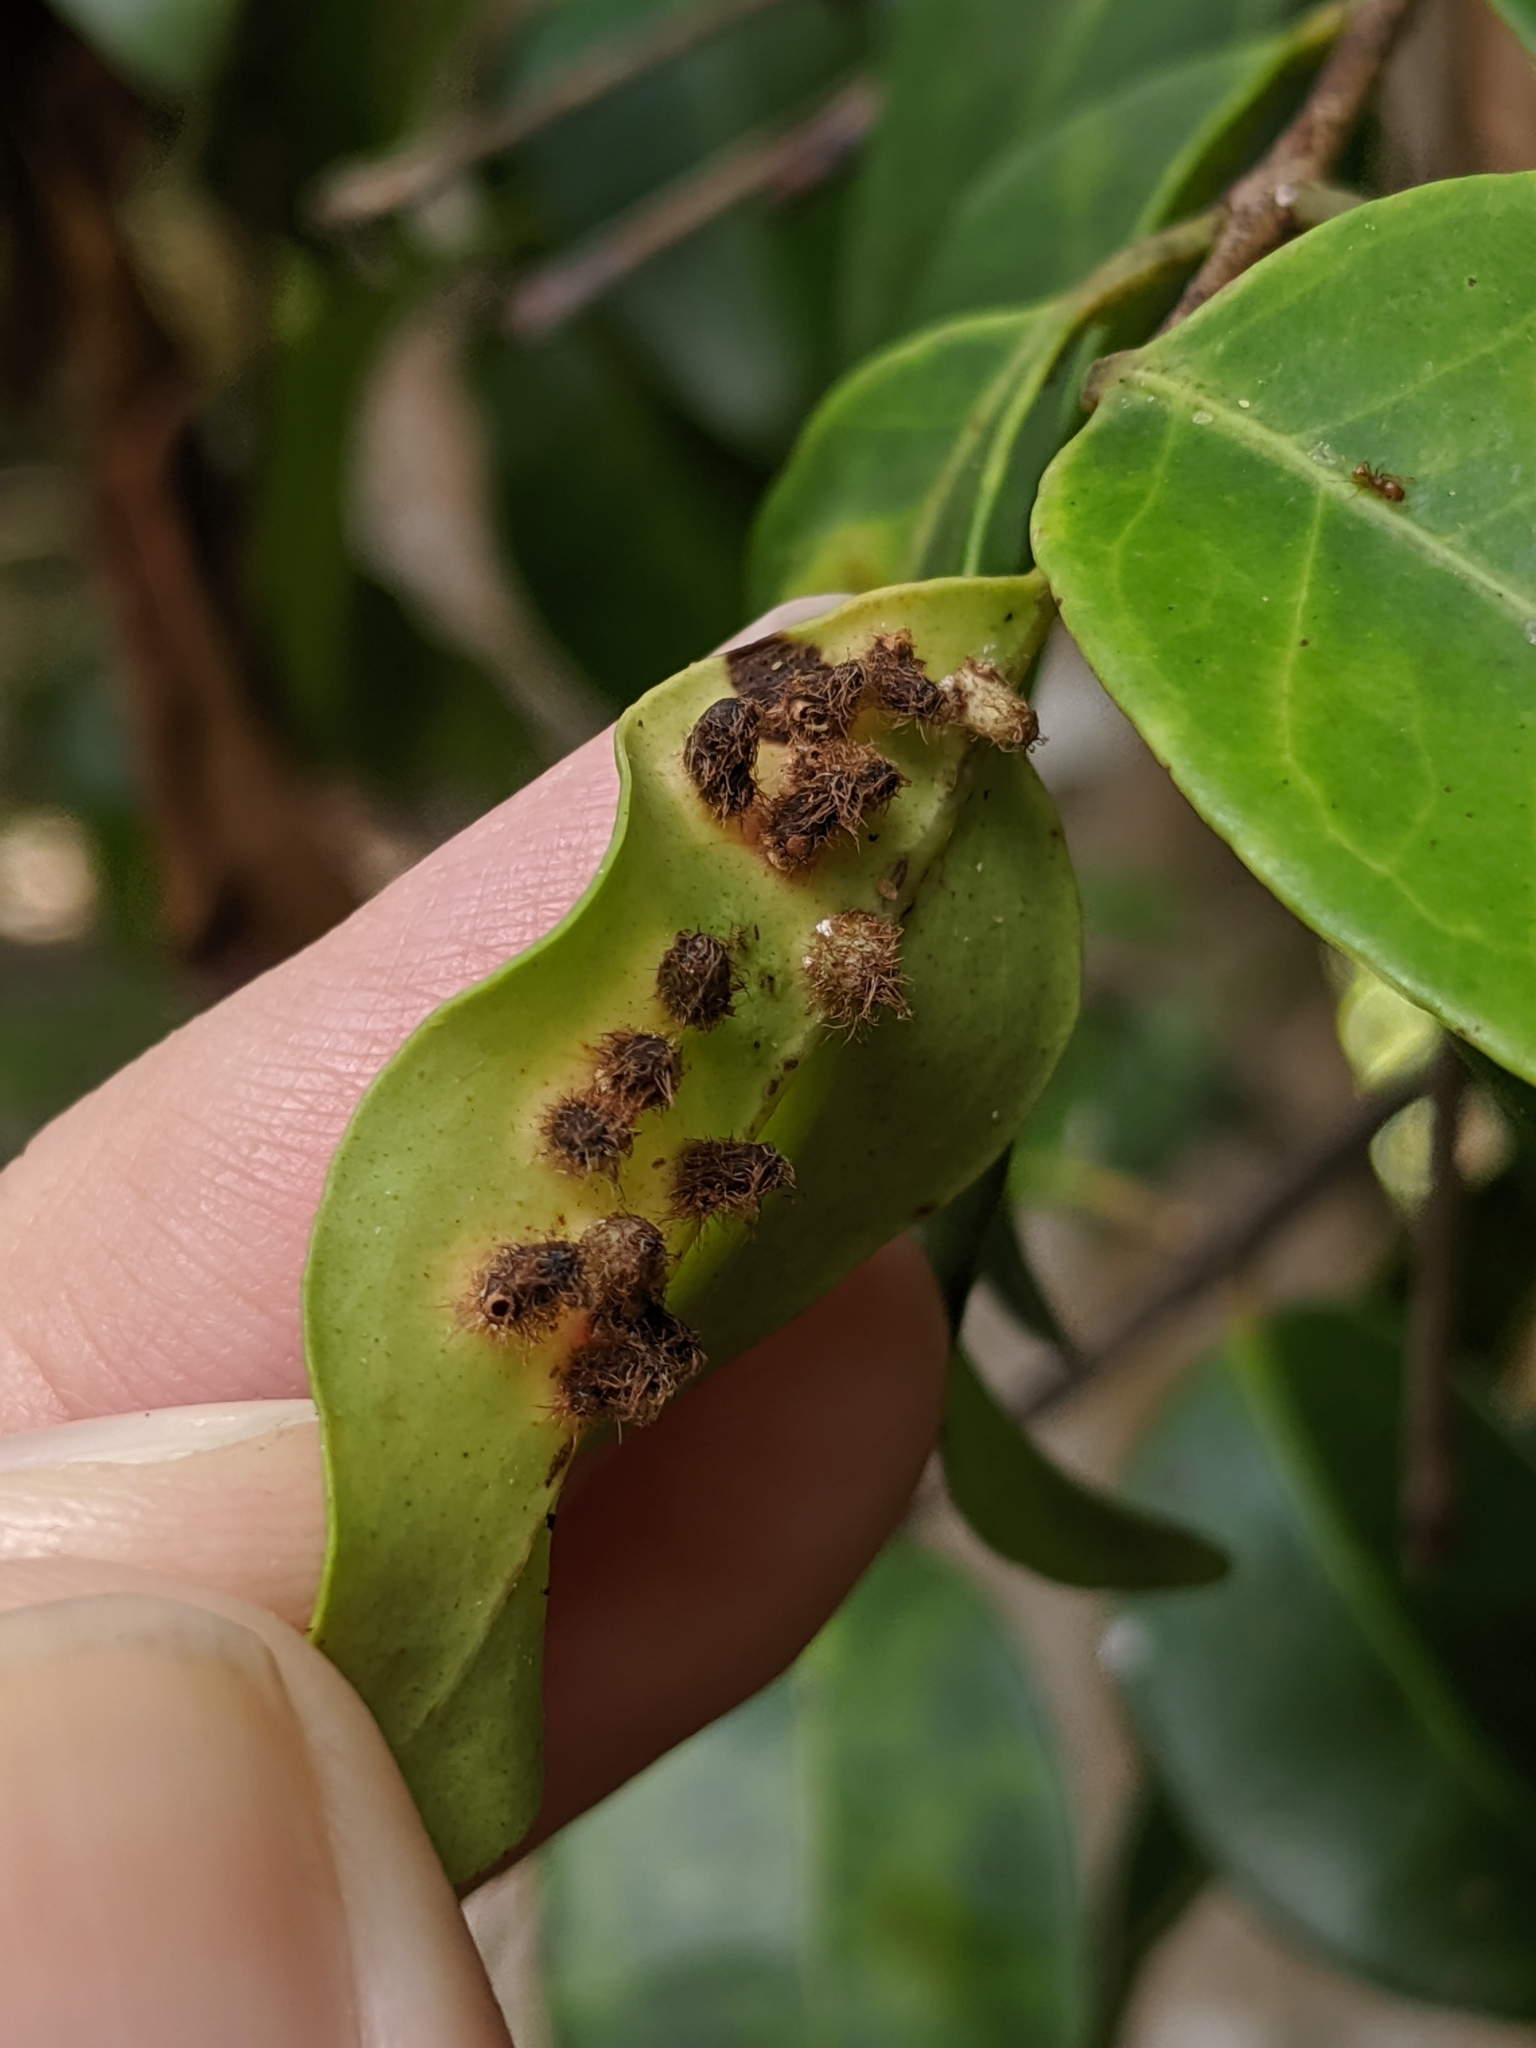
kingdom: Animalia
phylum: Arthropoda
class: Insecta
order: Diptera
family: Cecidomyiidae
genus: Stephomyia
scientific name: Stephomyia eugeniae
